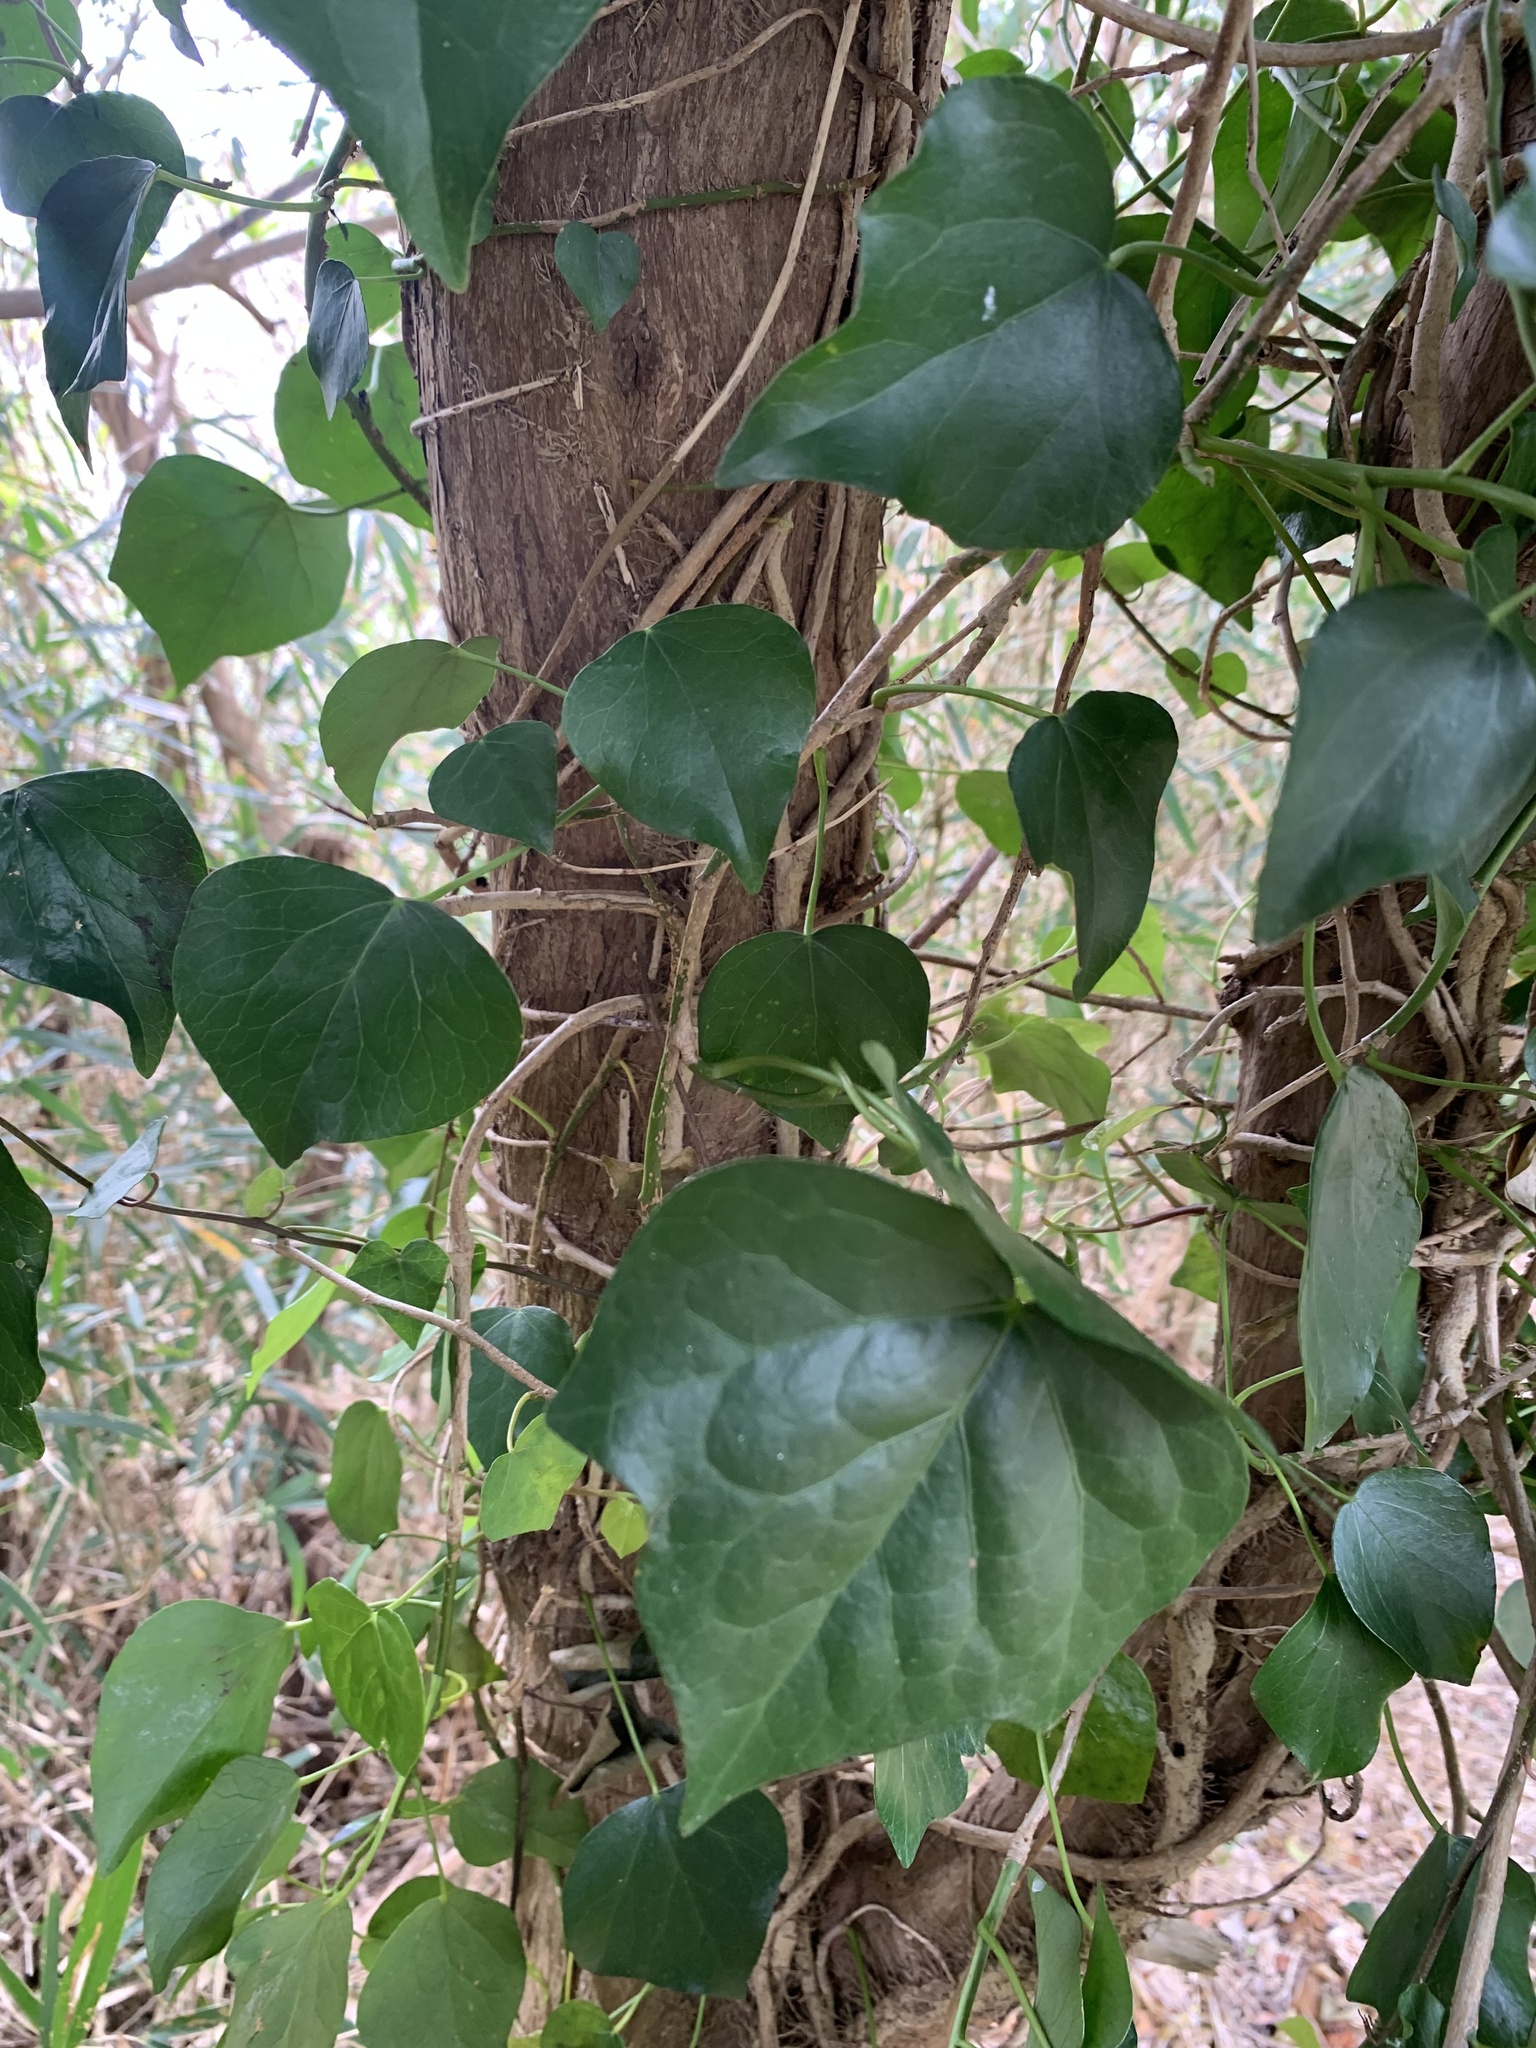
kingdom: Plantae
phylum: Tracheophyta
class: Magnoliopsida
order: Apiales
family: Araliaceae
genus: Hedera
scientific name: Hedera rhombea
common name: Japanese ivy
